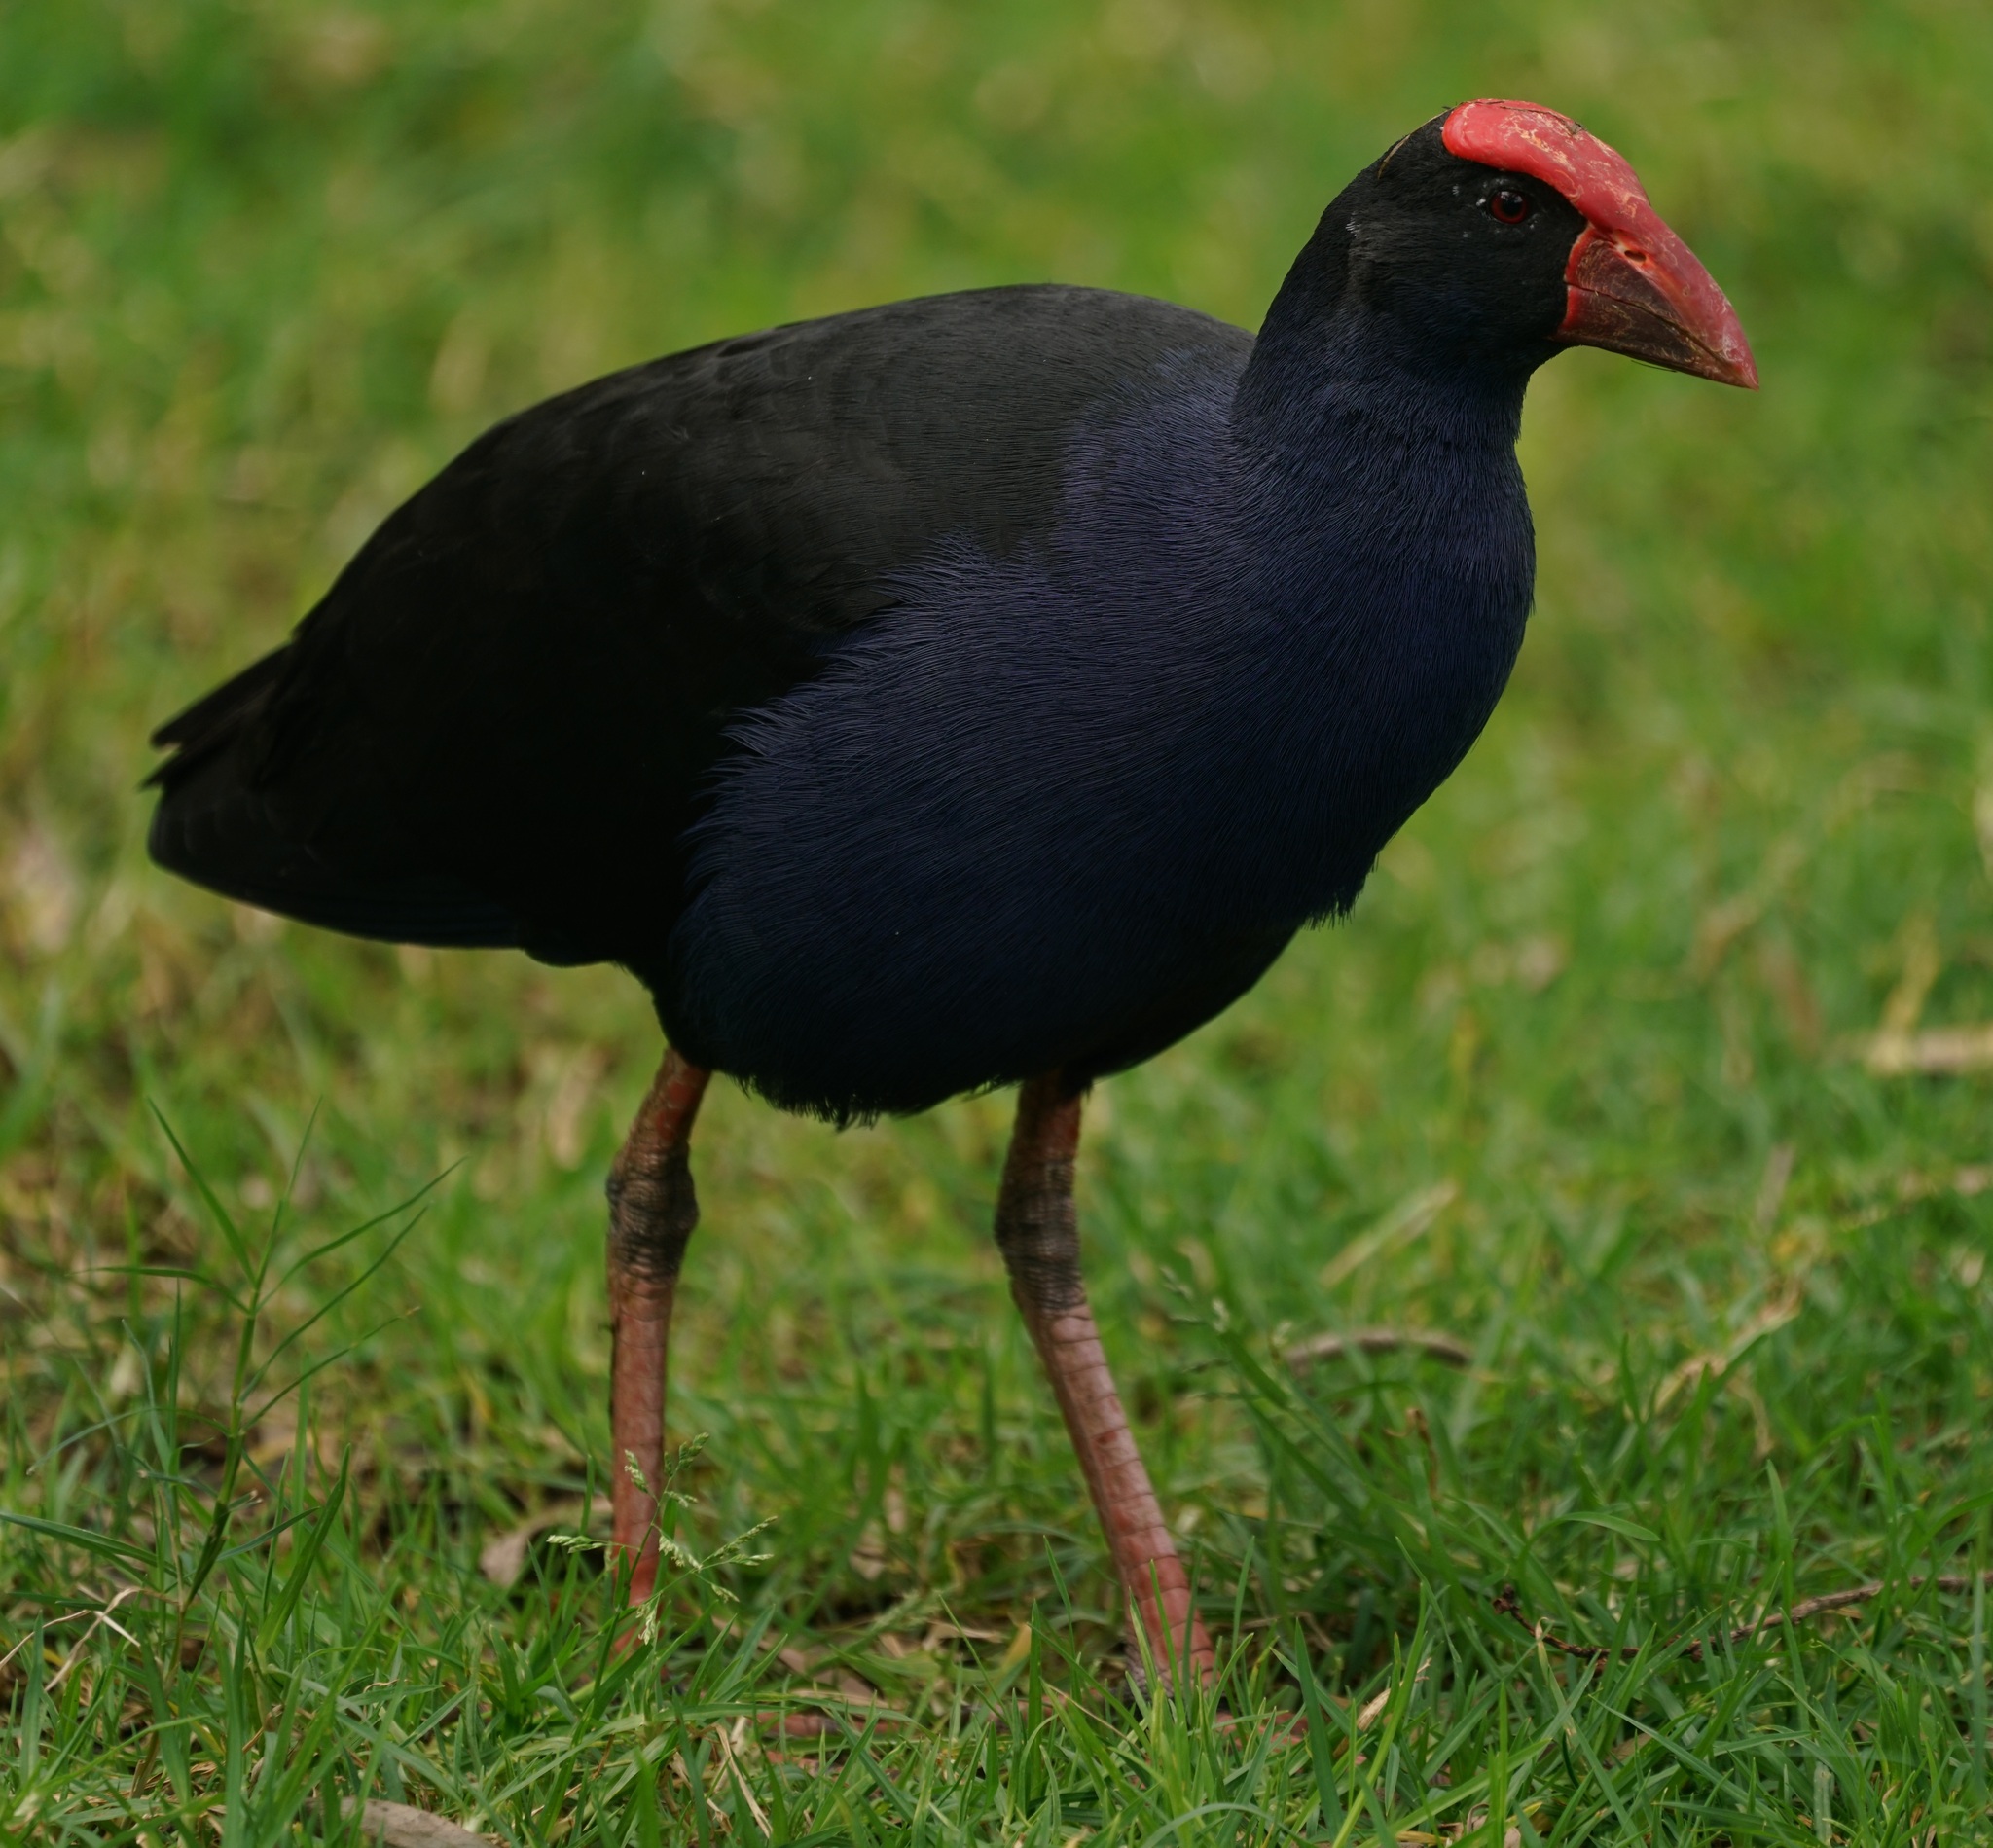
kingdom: Animalia
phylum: Chordata
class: Aves
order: Gruiformes
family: Rallidae
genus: Porphyrio
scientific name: Porphyrio melanotus
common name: Australasian swamphen
